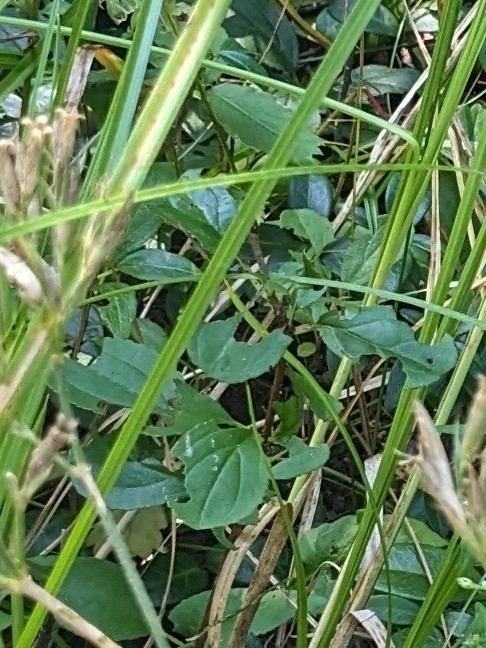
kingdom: Plantae
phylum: Tracheophyta
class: Magnoliopsida
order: Rosales
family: Rhamnaceae
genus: Rhamnus
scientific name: Rhamnus cathartica
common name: Common buckthorn
